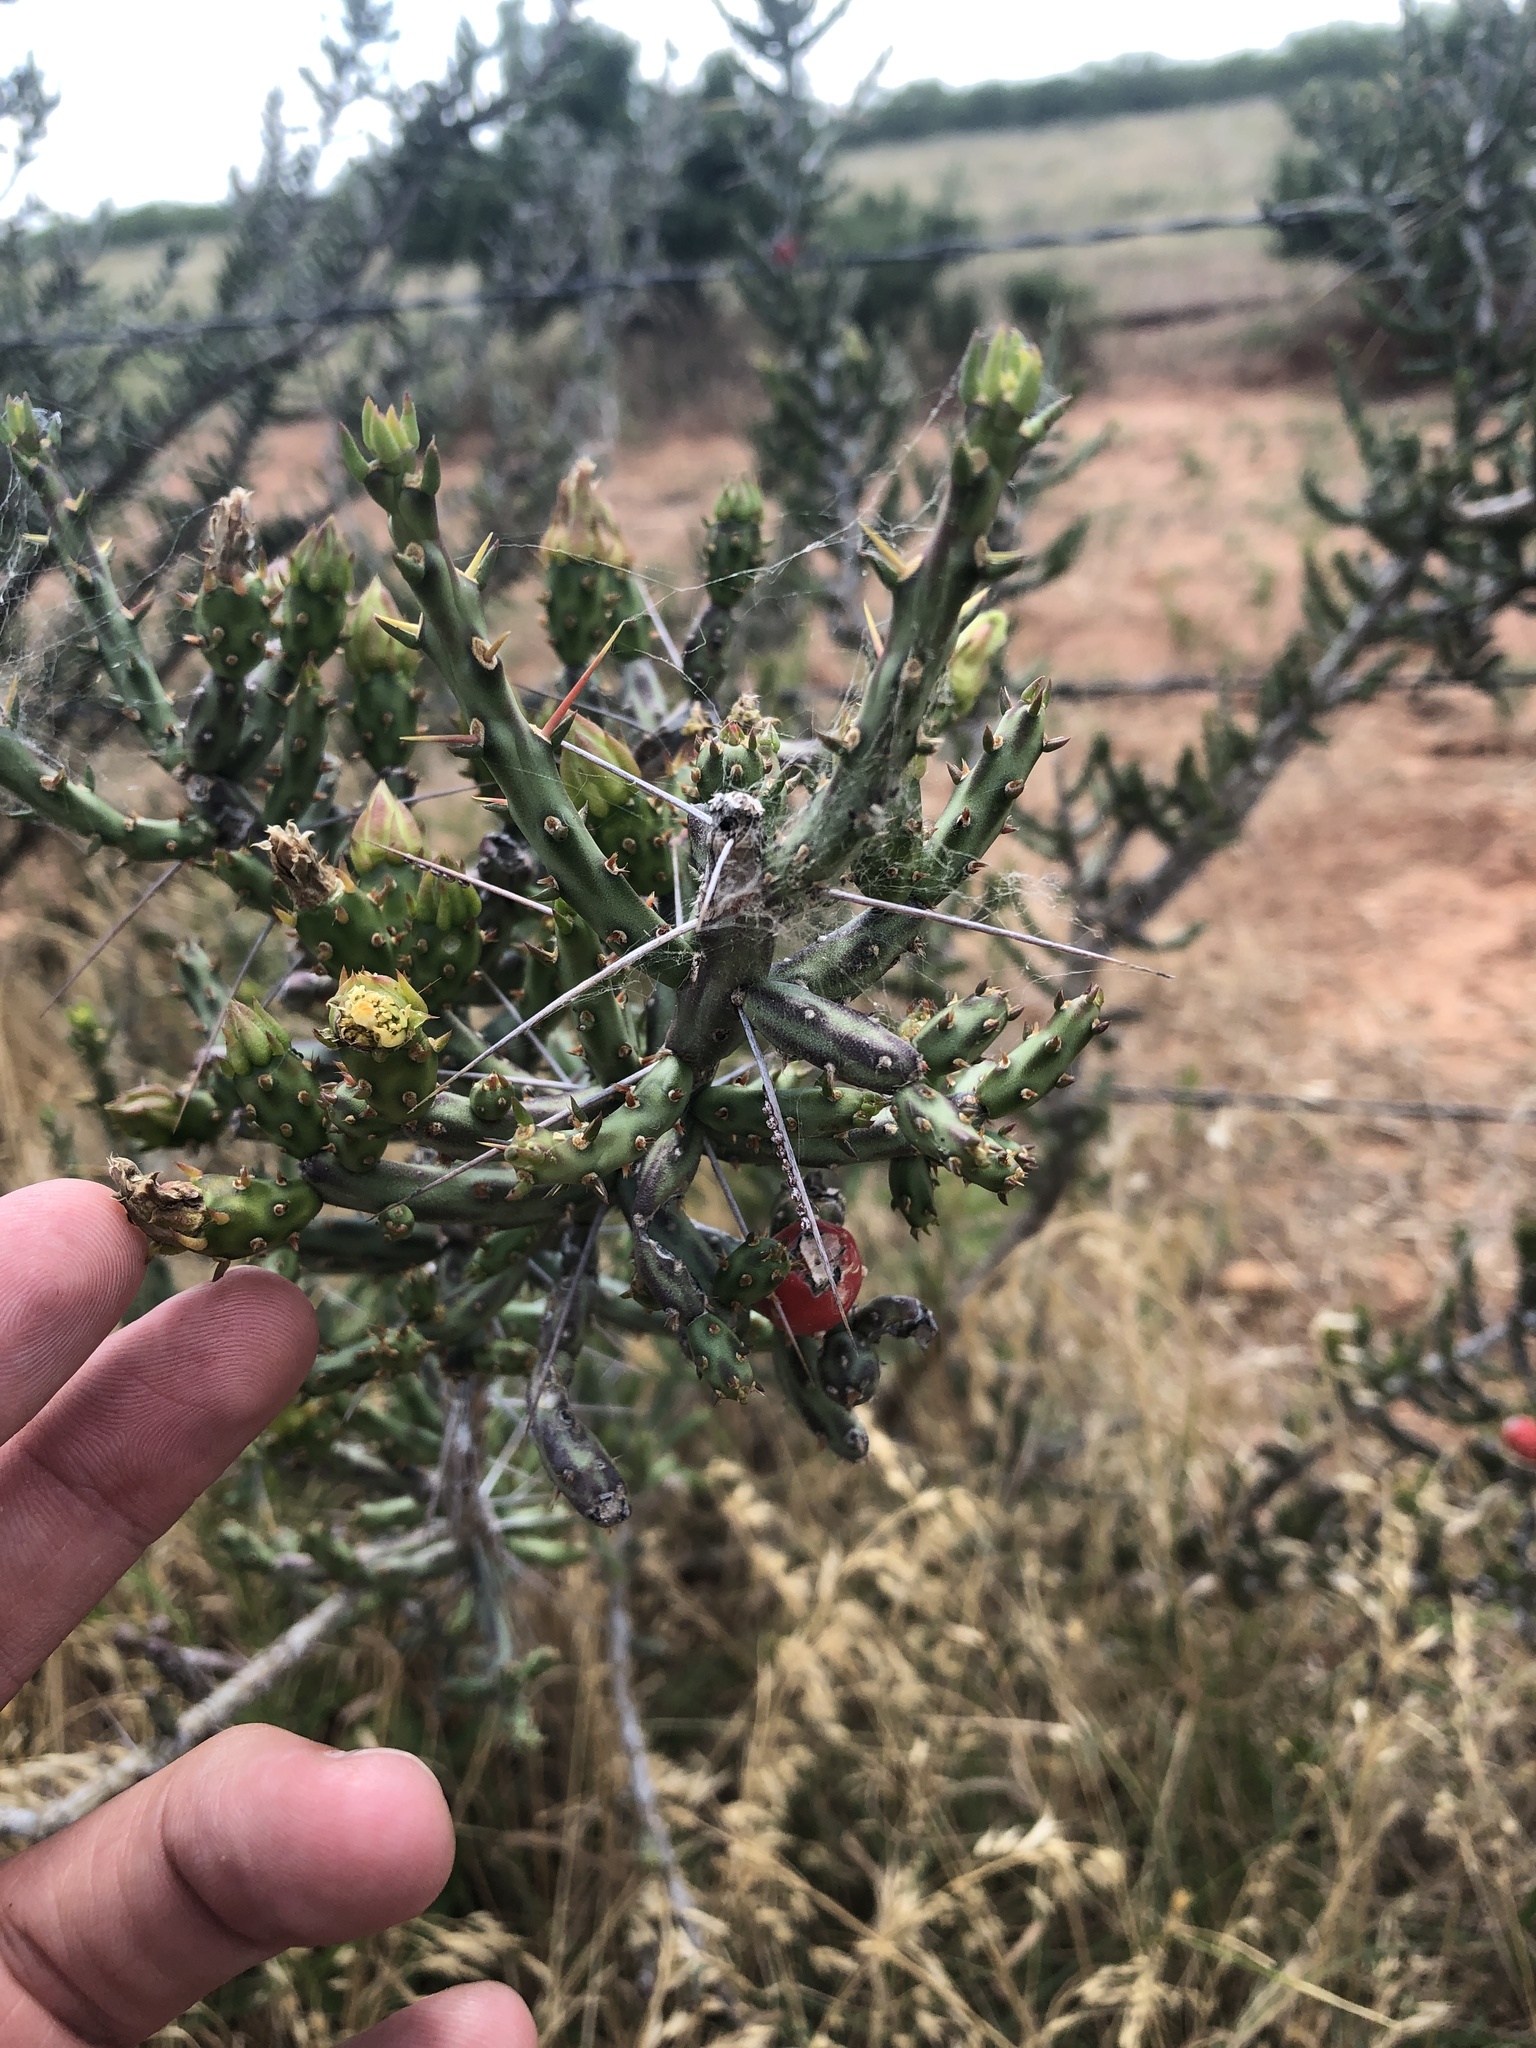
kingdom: Plantae
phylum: Tracheophyta
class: Magnoliopsida
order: Caryophyllales
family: Cactaceae
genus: Cylindropuntia
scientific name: Cylindropuntia leptocaulis
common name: Christmas cactus
